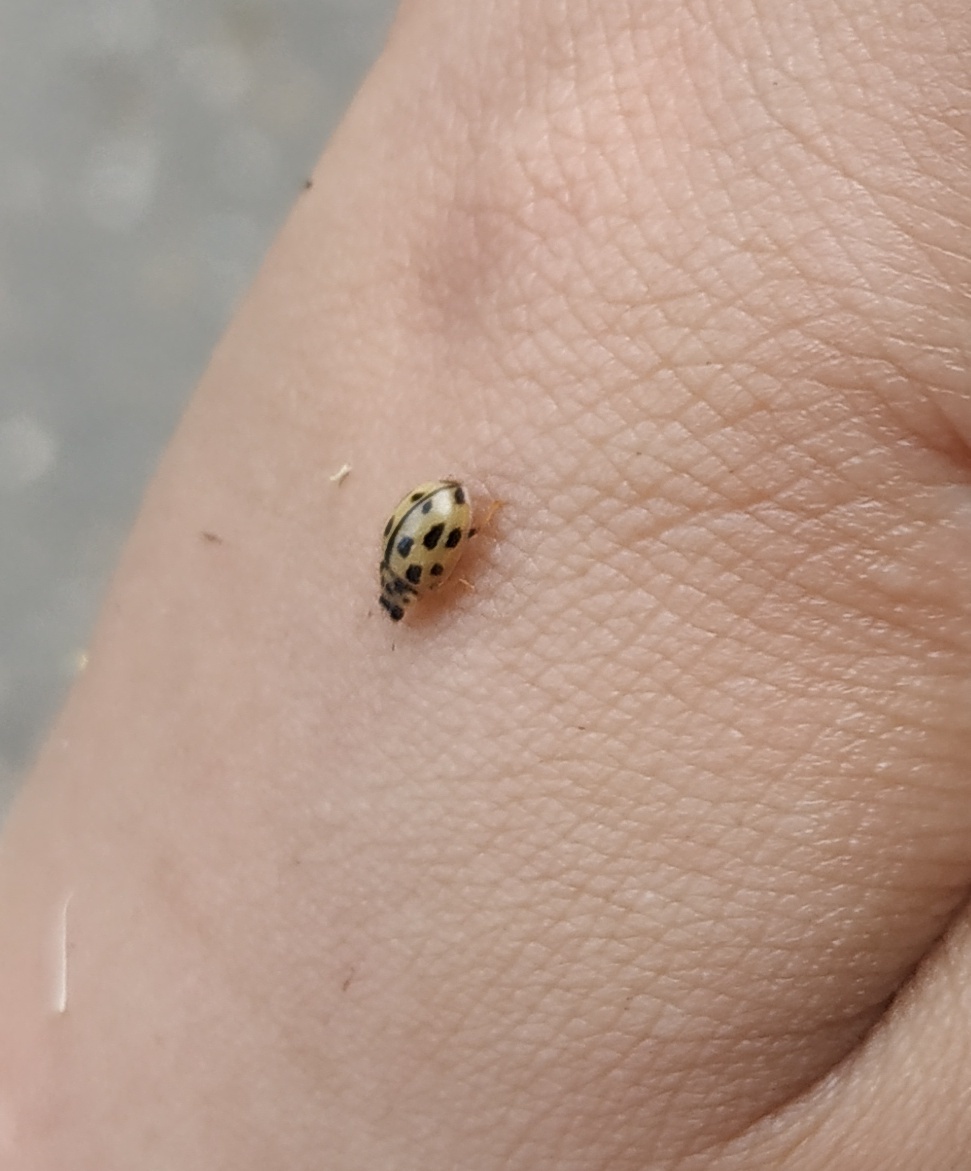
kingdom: Animalia
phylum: Arthropoda
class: Insecta
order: Coleoptera
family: Coccinellidae
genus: Propylaea
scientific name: Propylaea quatuordecimpunctata
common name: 14-spotted ladybird beetle
